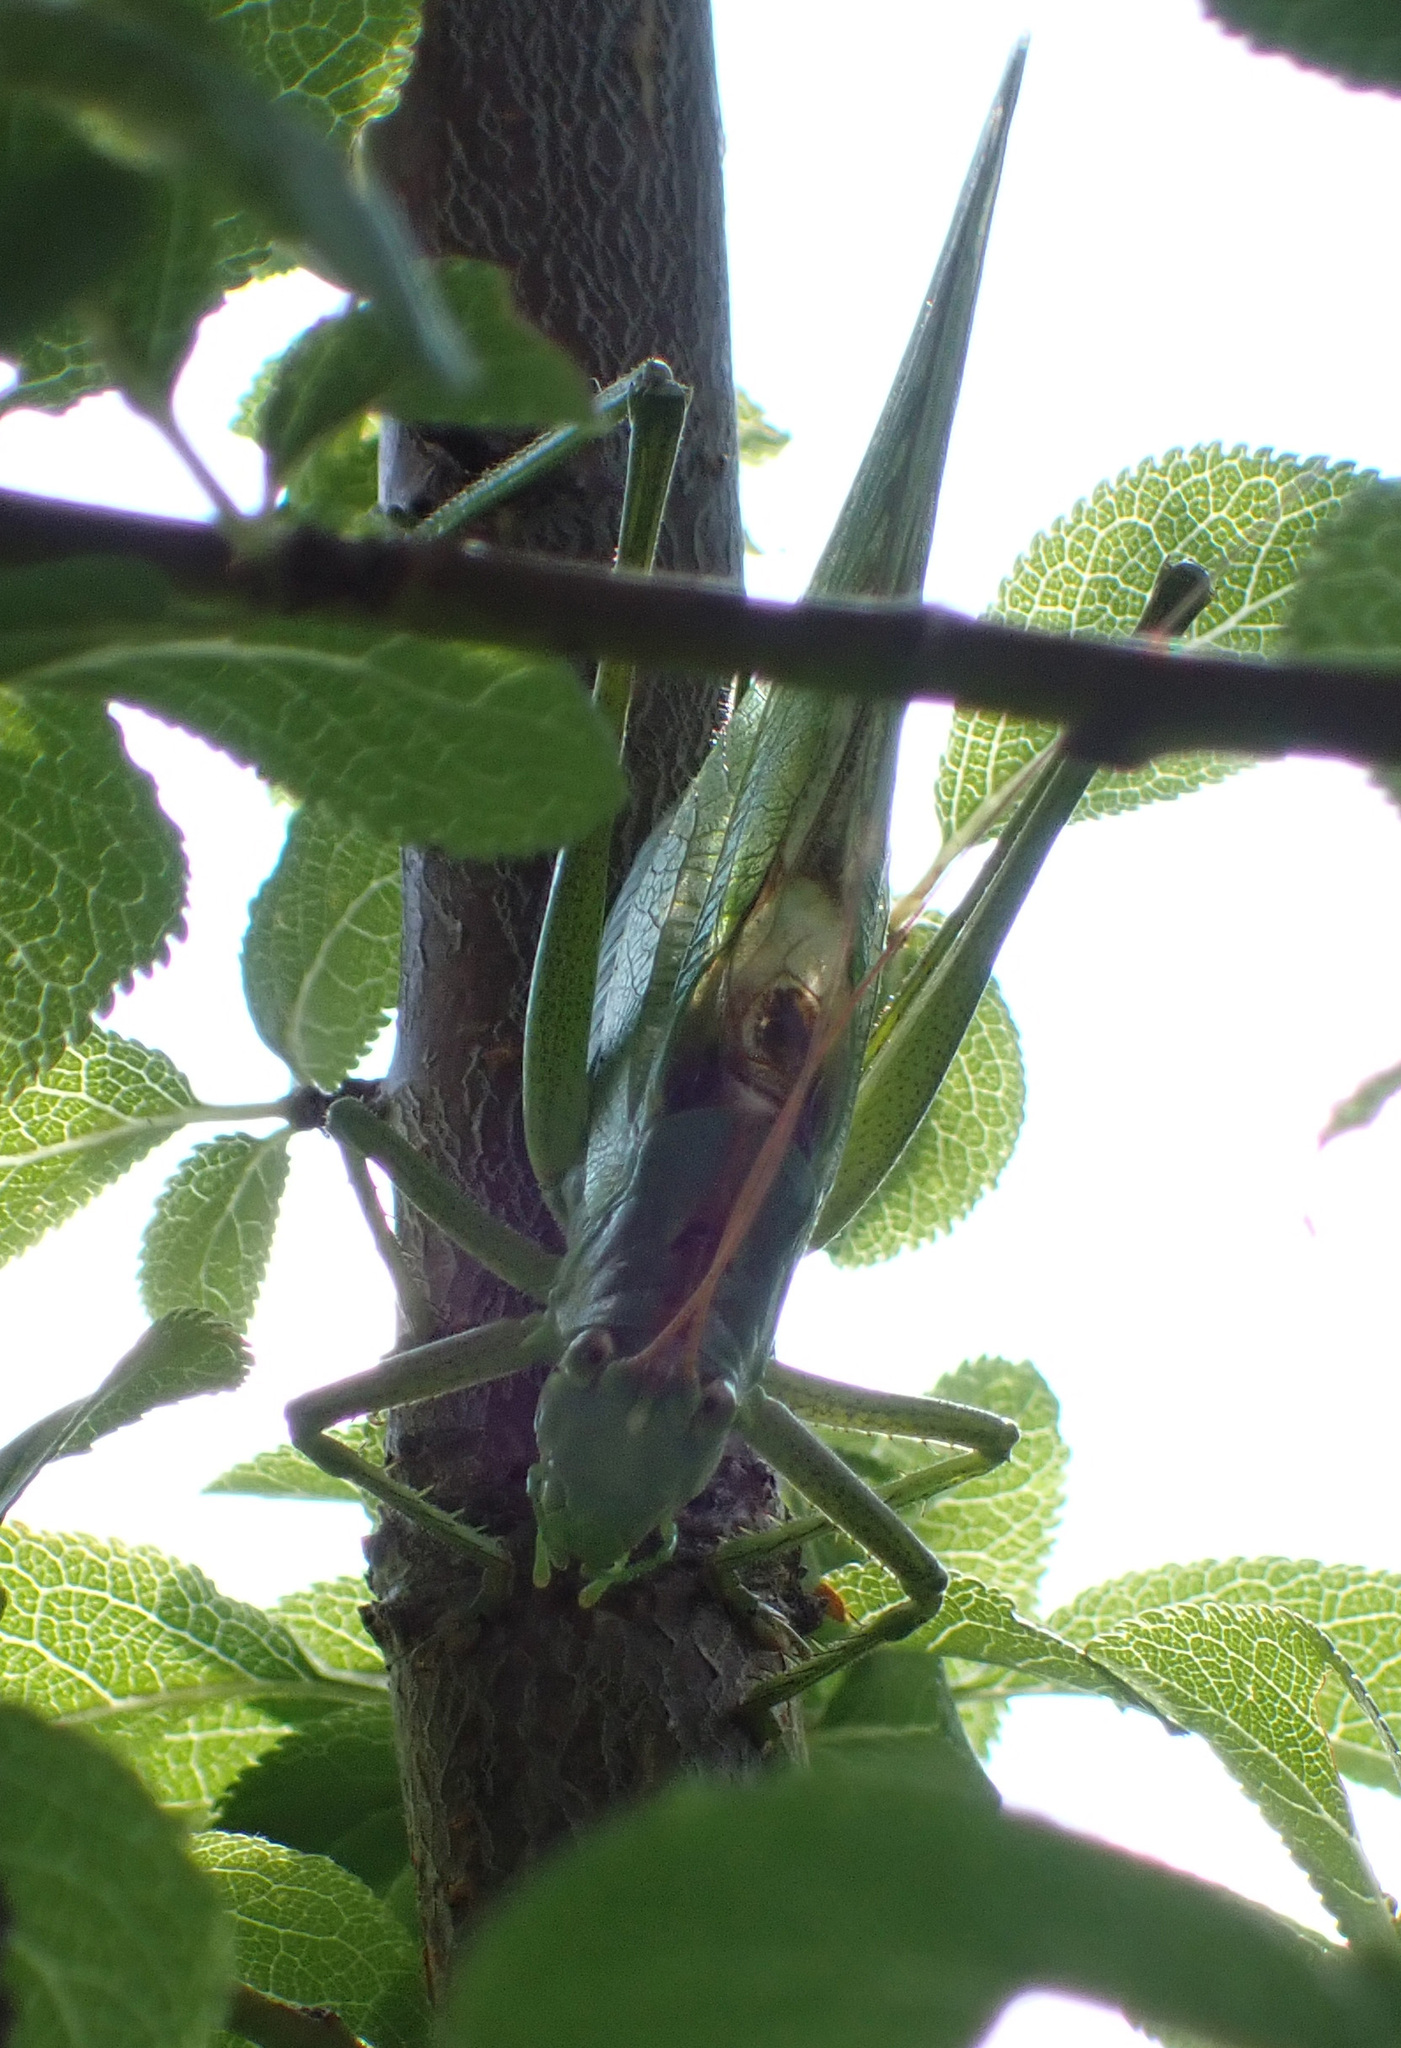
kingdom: Animalia
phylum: Arthropoda
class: Insecta
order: Orthoptera
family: Tettigoniidae
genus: Tettigonia
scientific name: Tettigonia viridissima
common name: Great green bush-cricket
